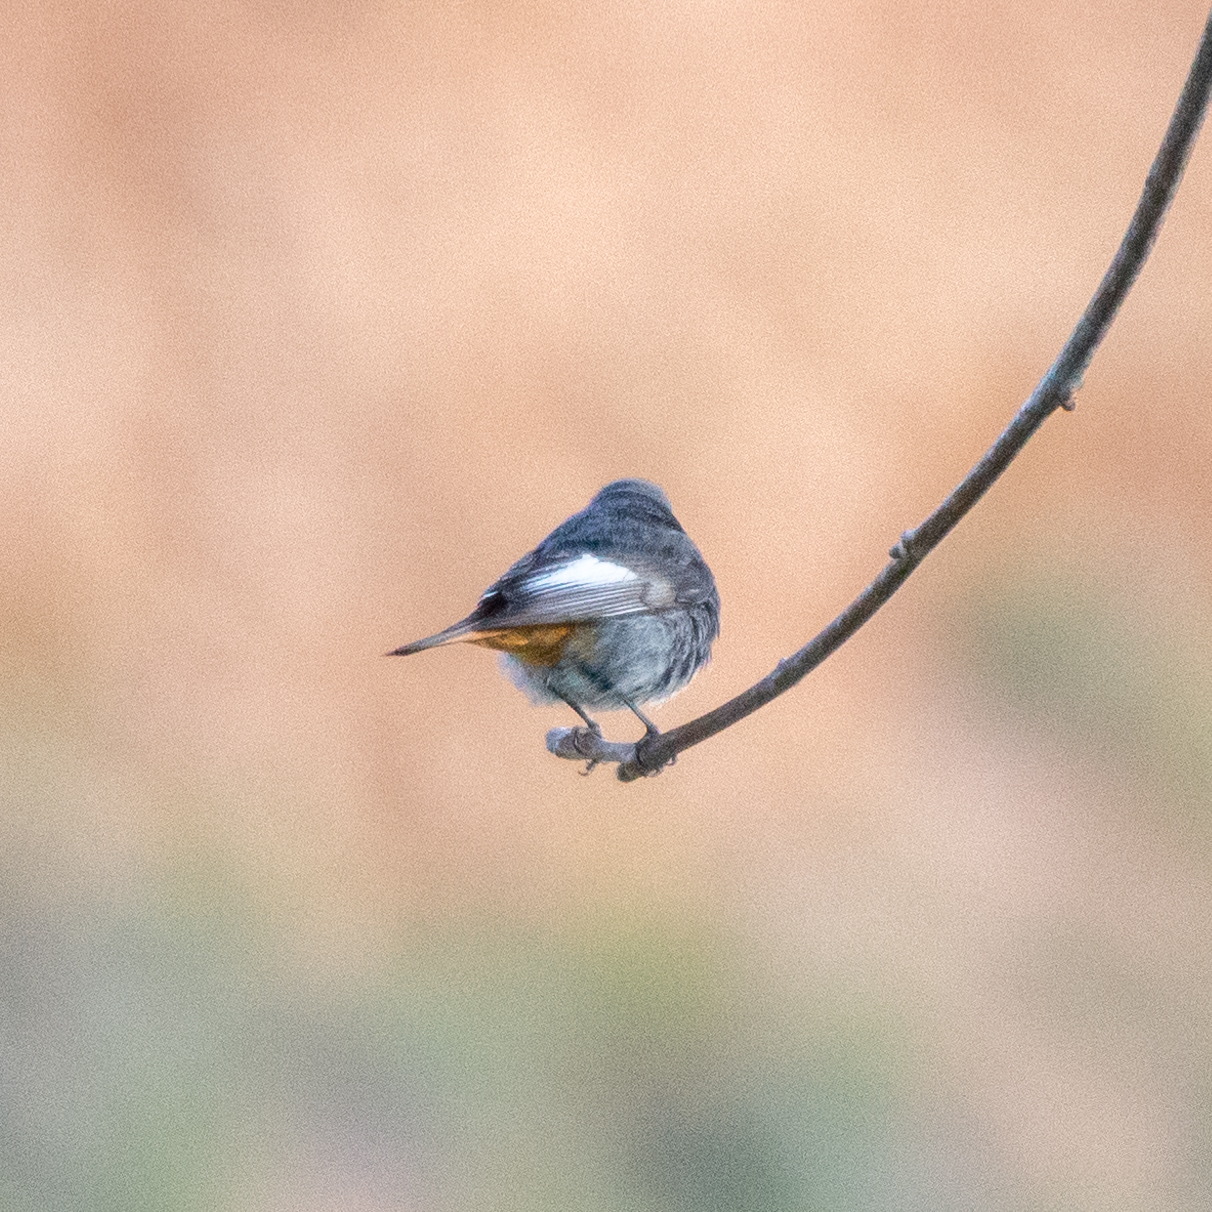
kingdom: Animalia
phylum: Chordata
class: Aves
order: Passeriformes
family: Muscicapidae
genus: Phoenicurus
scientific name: Phoenicurus ochruros
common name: Black redstart
